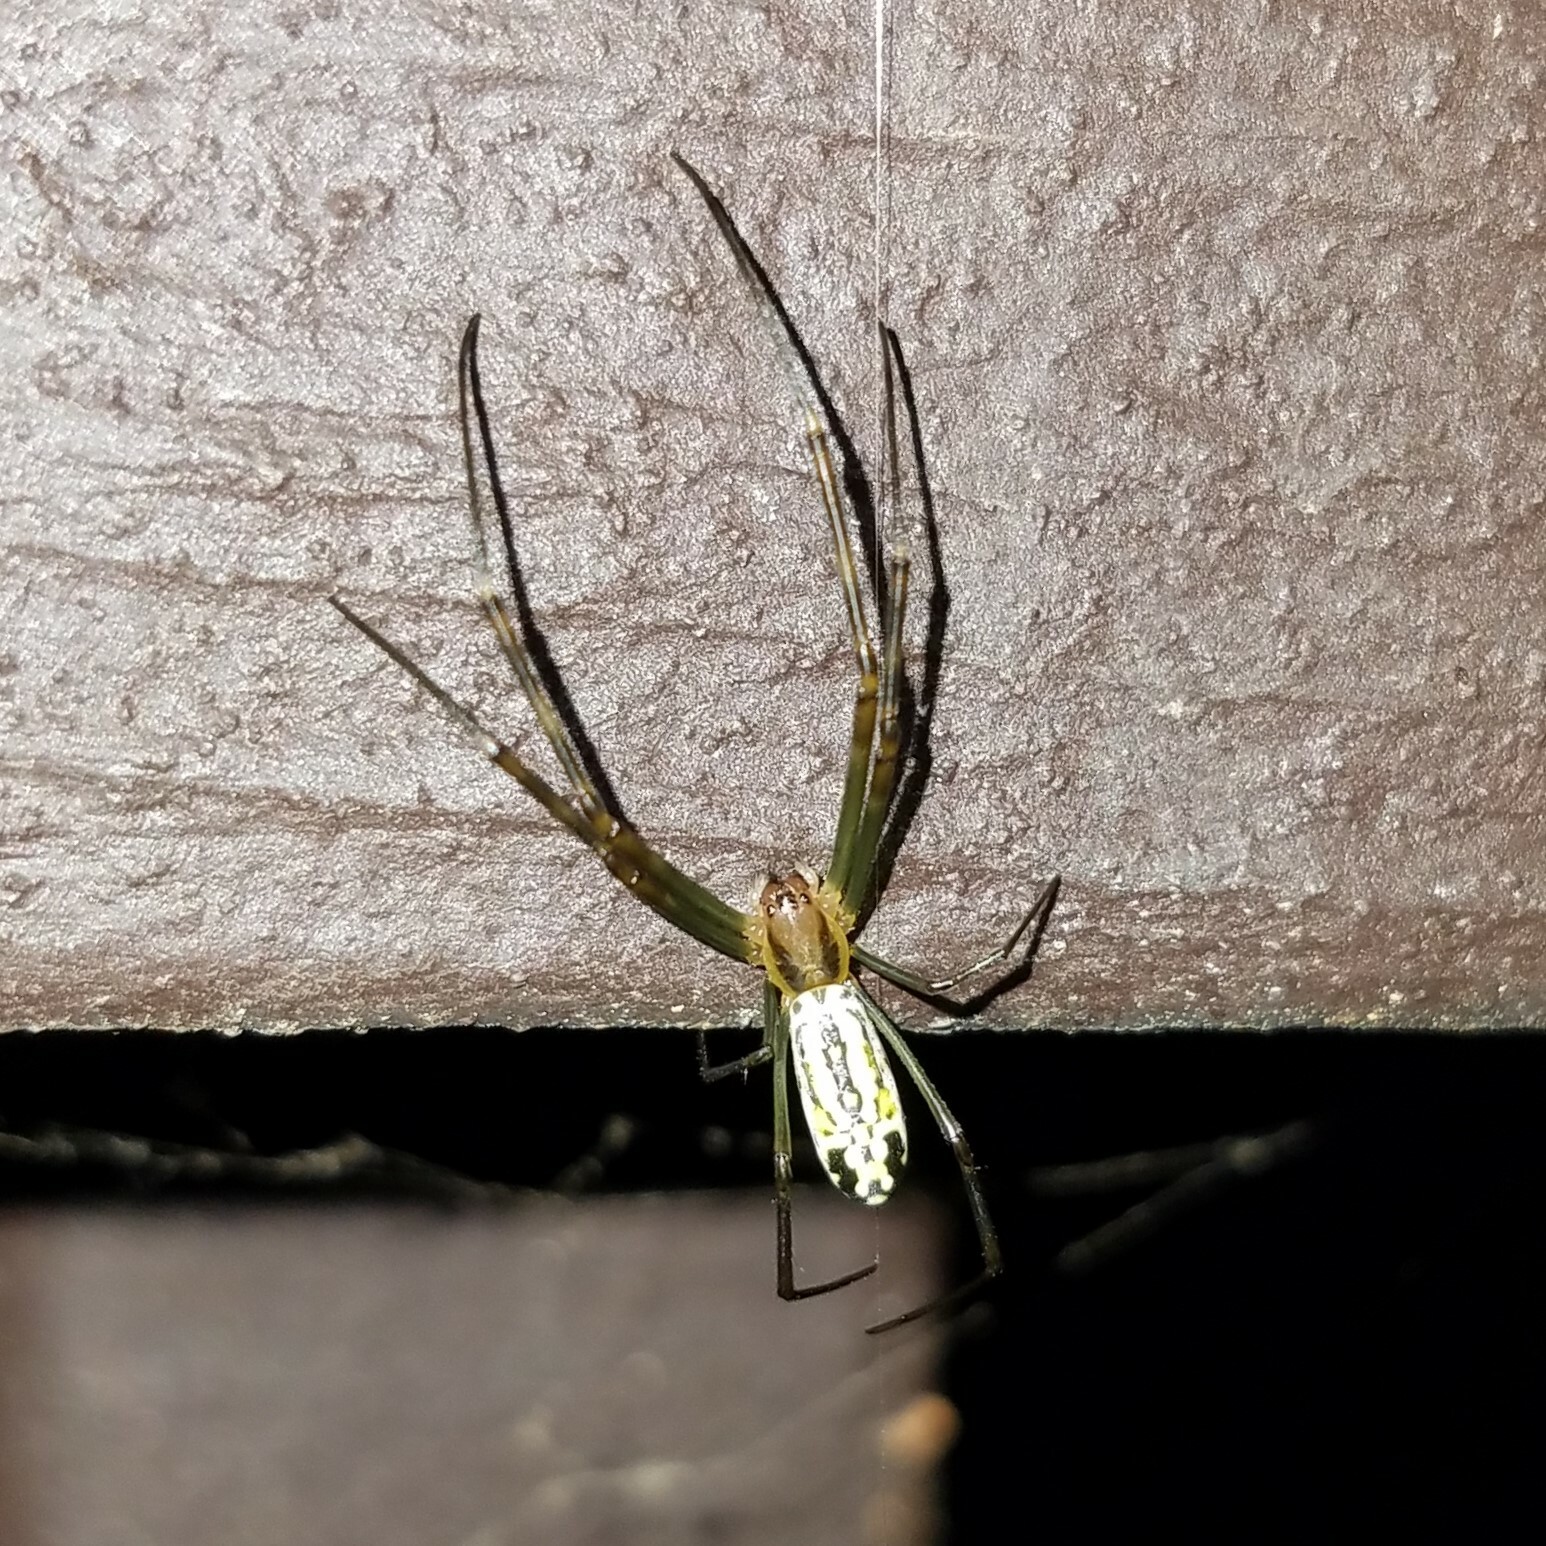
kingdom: Animalia
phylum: Arthropoda
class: Arachnida
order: Araneae
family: Araneidae
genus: Trichonephila
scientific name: Trichonephila clavata
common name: Jorō spider
